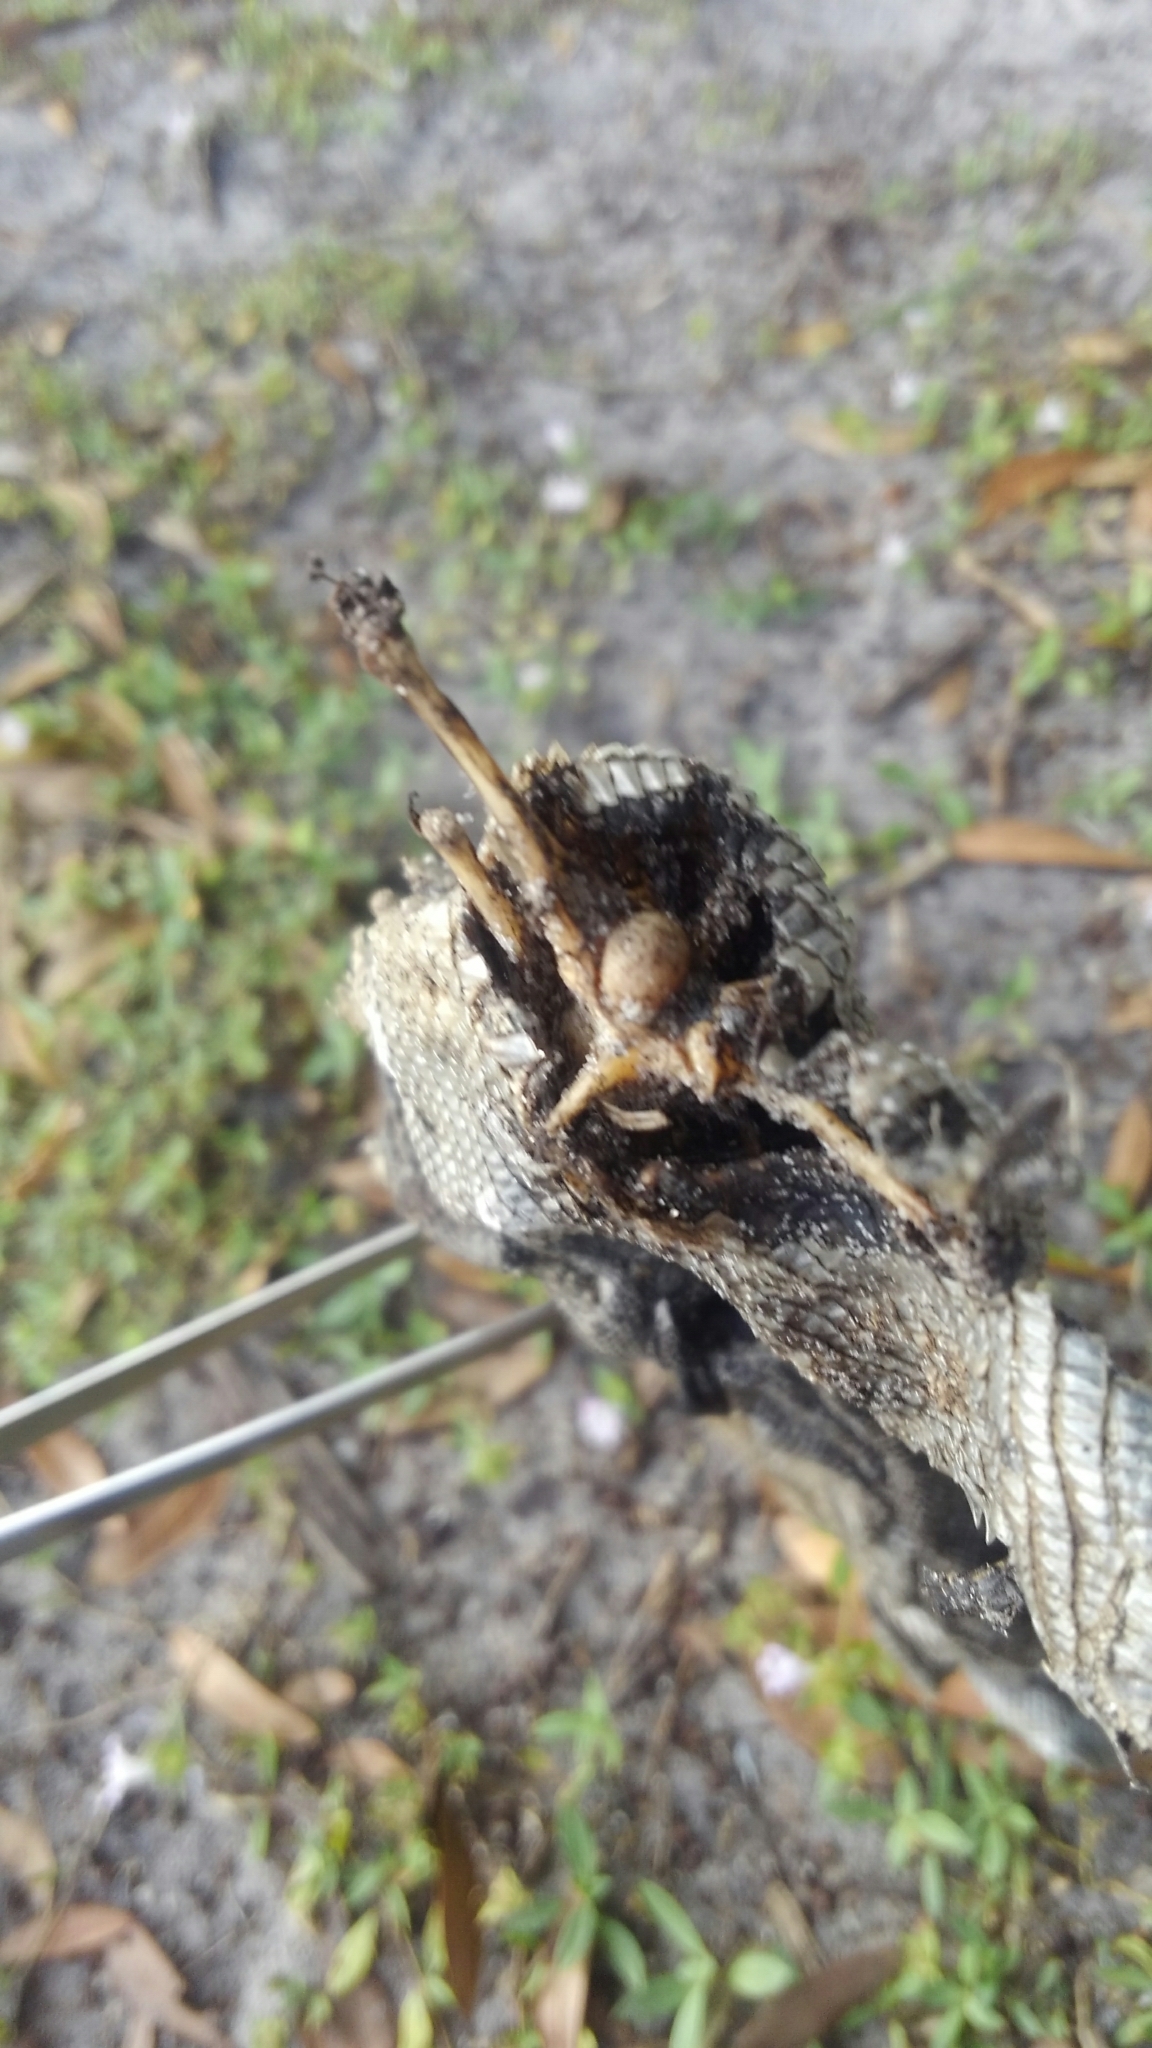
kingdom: Animalia
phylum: Chordata
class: Squamata
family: Iguanidae
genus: Iguana
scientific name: Iguana iguana
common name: Green iguana
